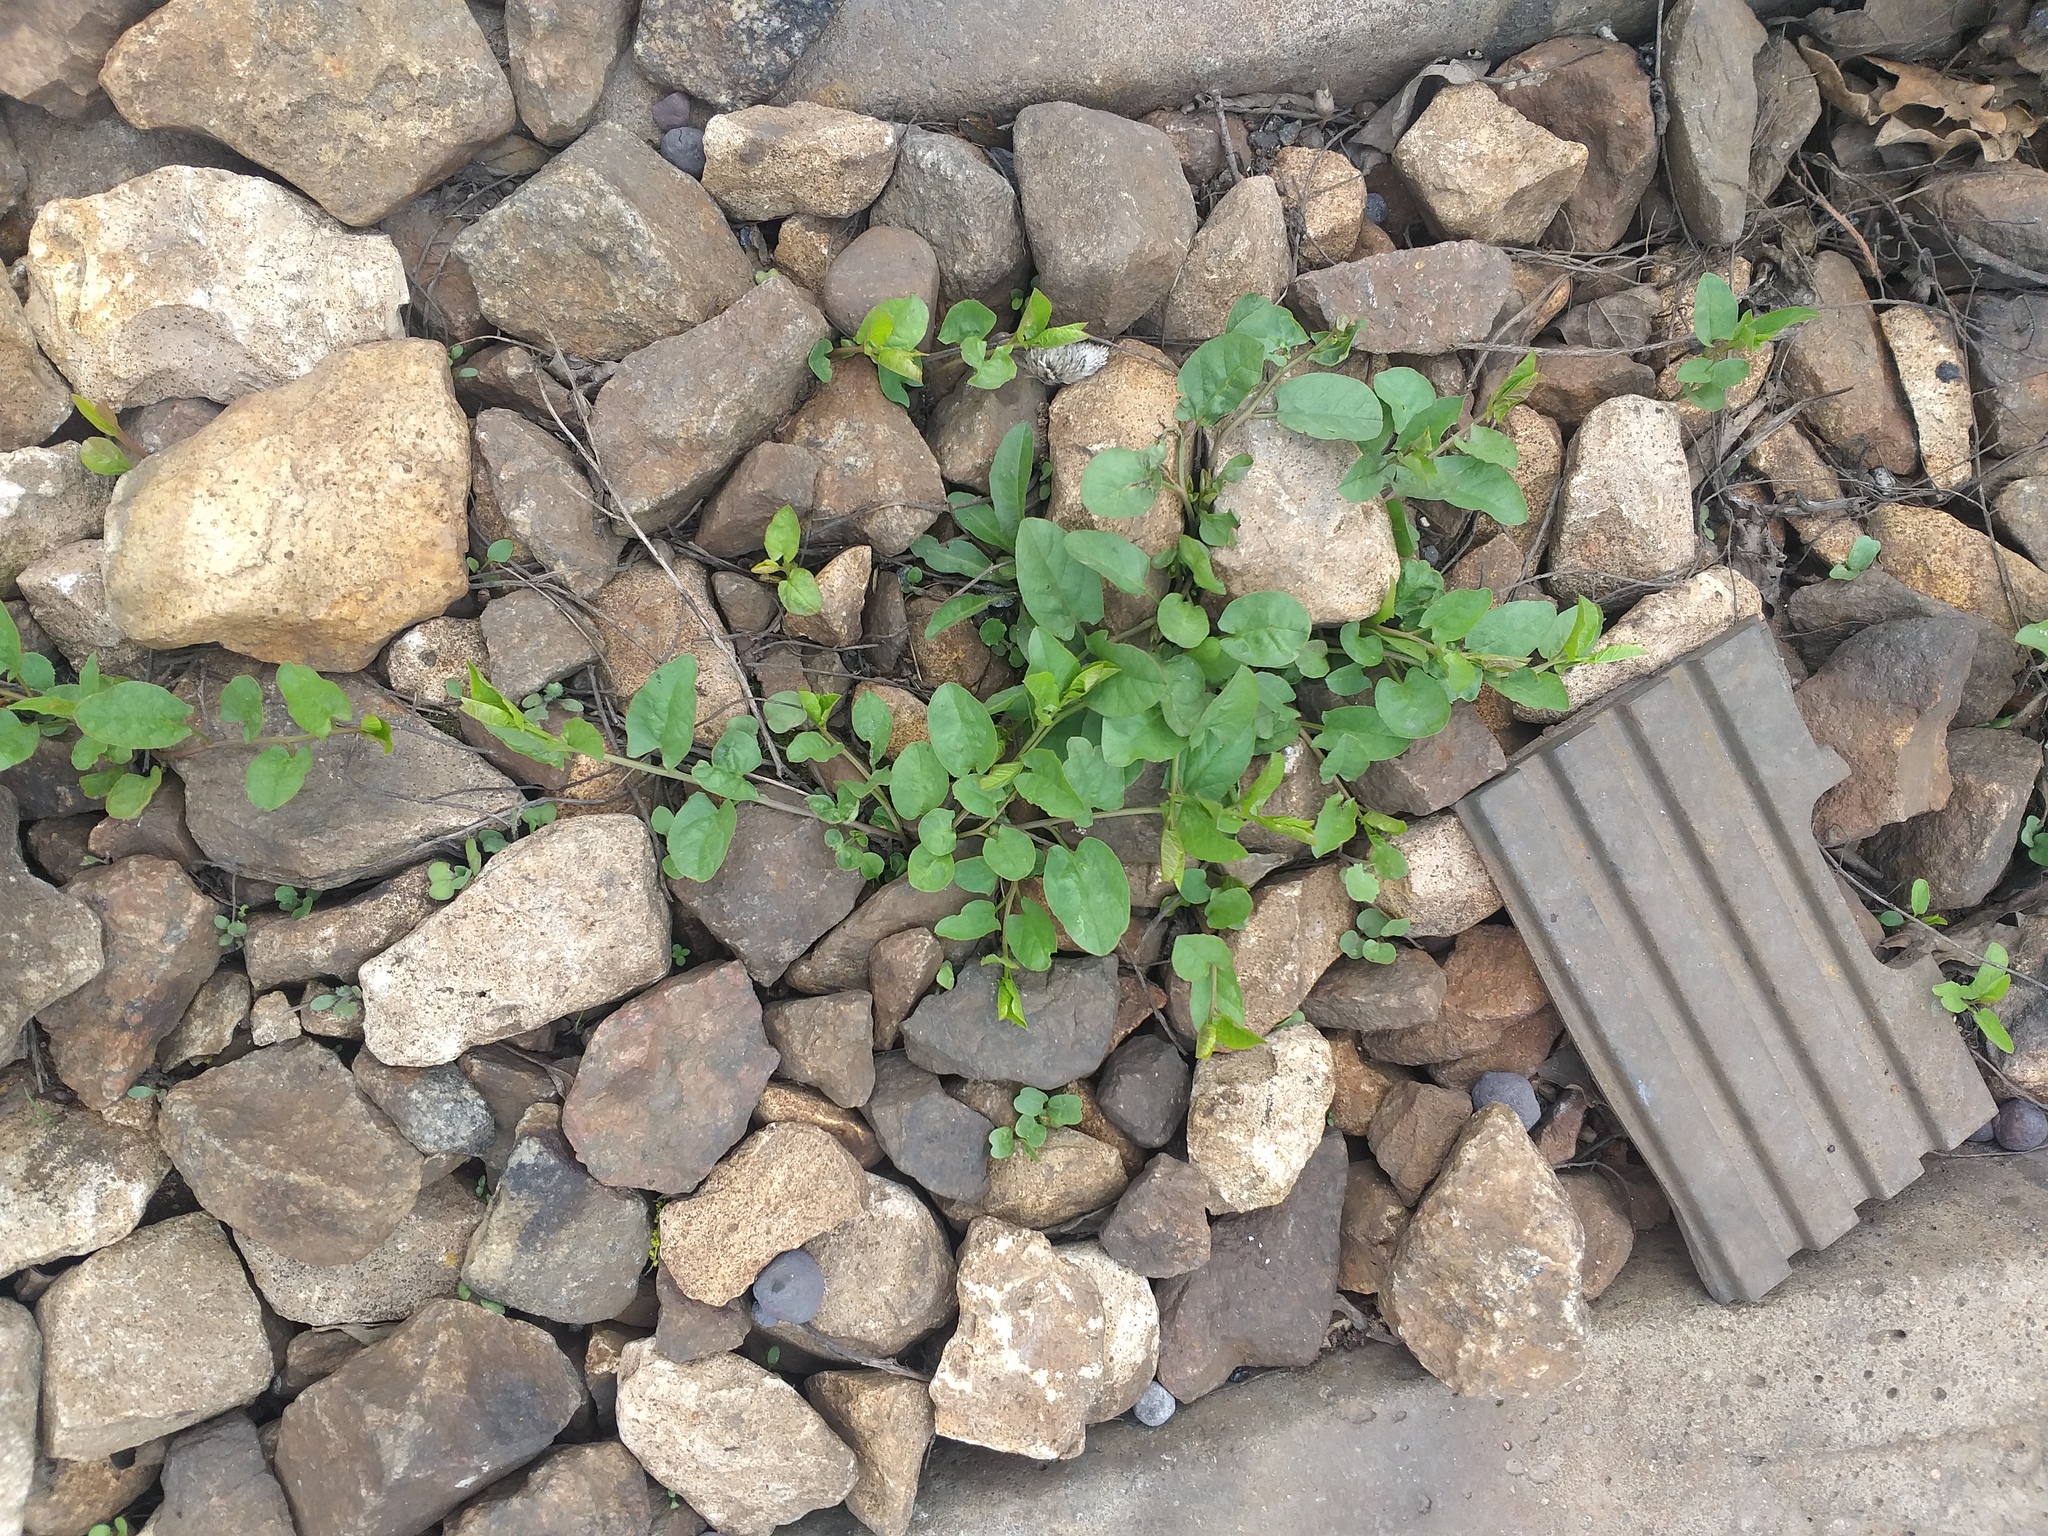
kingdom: Plantae
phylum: Tracheophyta
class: Magnoliopsida
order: Solanales
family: Convolvulaceae
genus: Convolvulus
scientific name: Convolvulus arvensis
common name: Field bindweed
